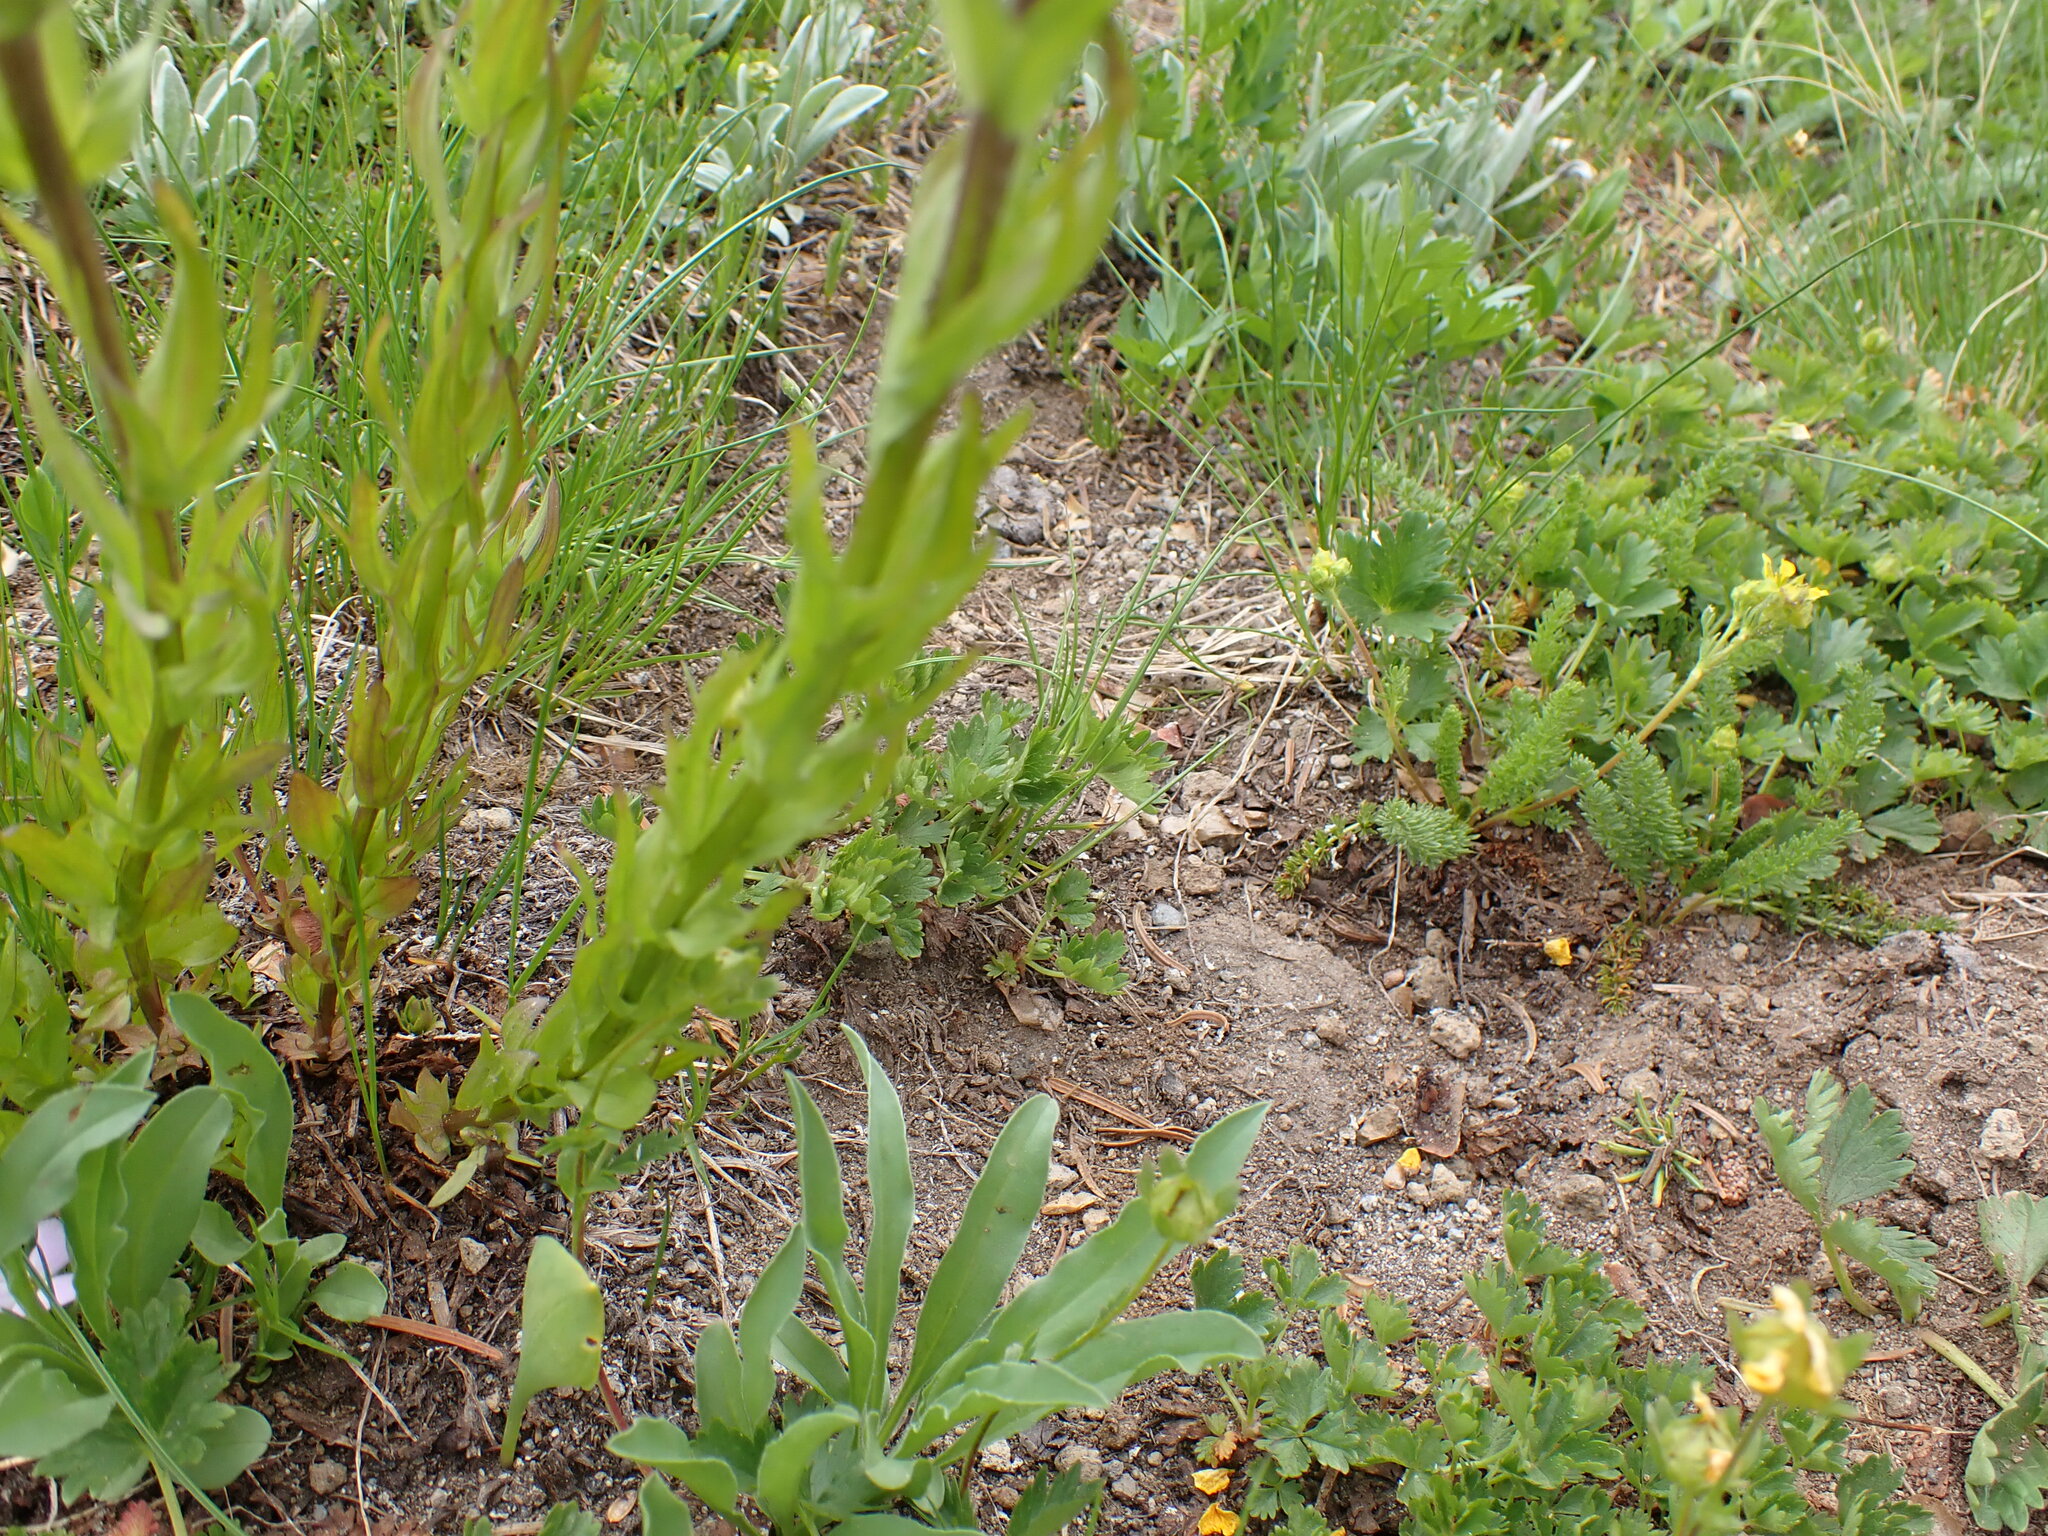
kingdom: Plantae
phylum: Tracheophyta
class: Magnoliopsida
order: Lamiales
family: Orobanchaceae
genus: Castilleja
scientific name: Castilleja parviflora
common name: Mountain paintbrush
